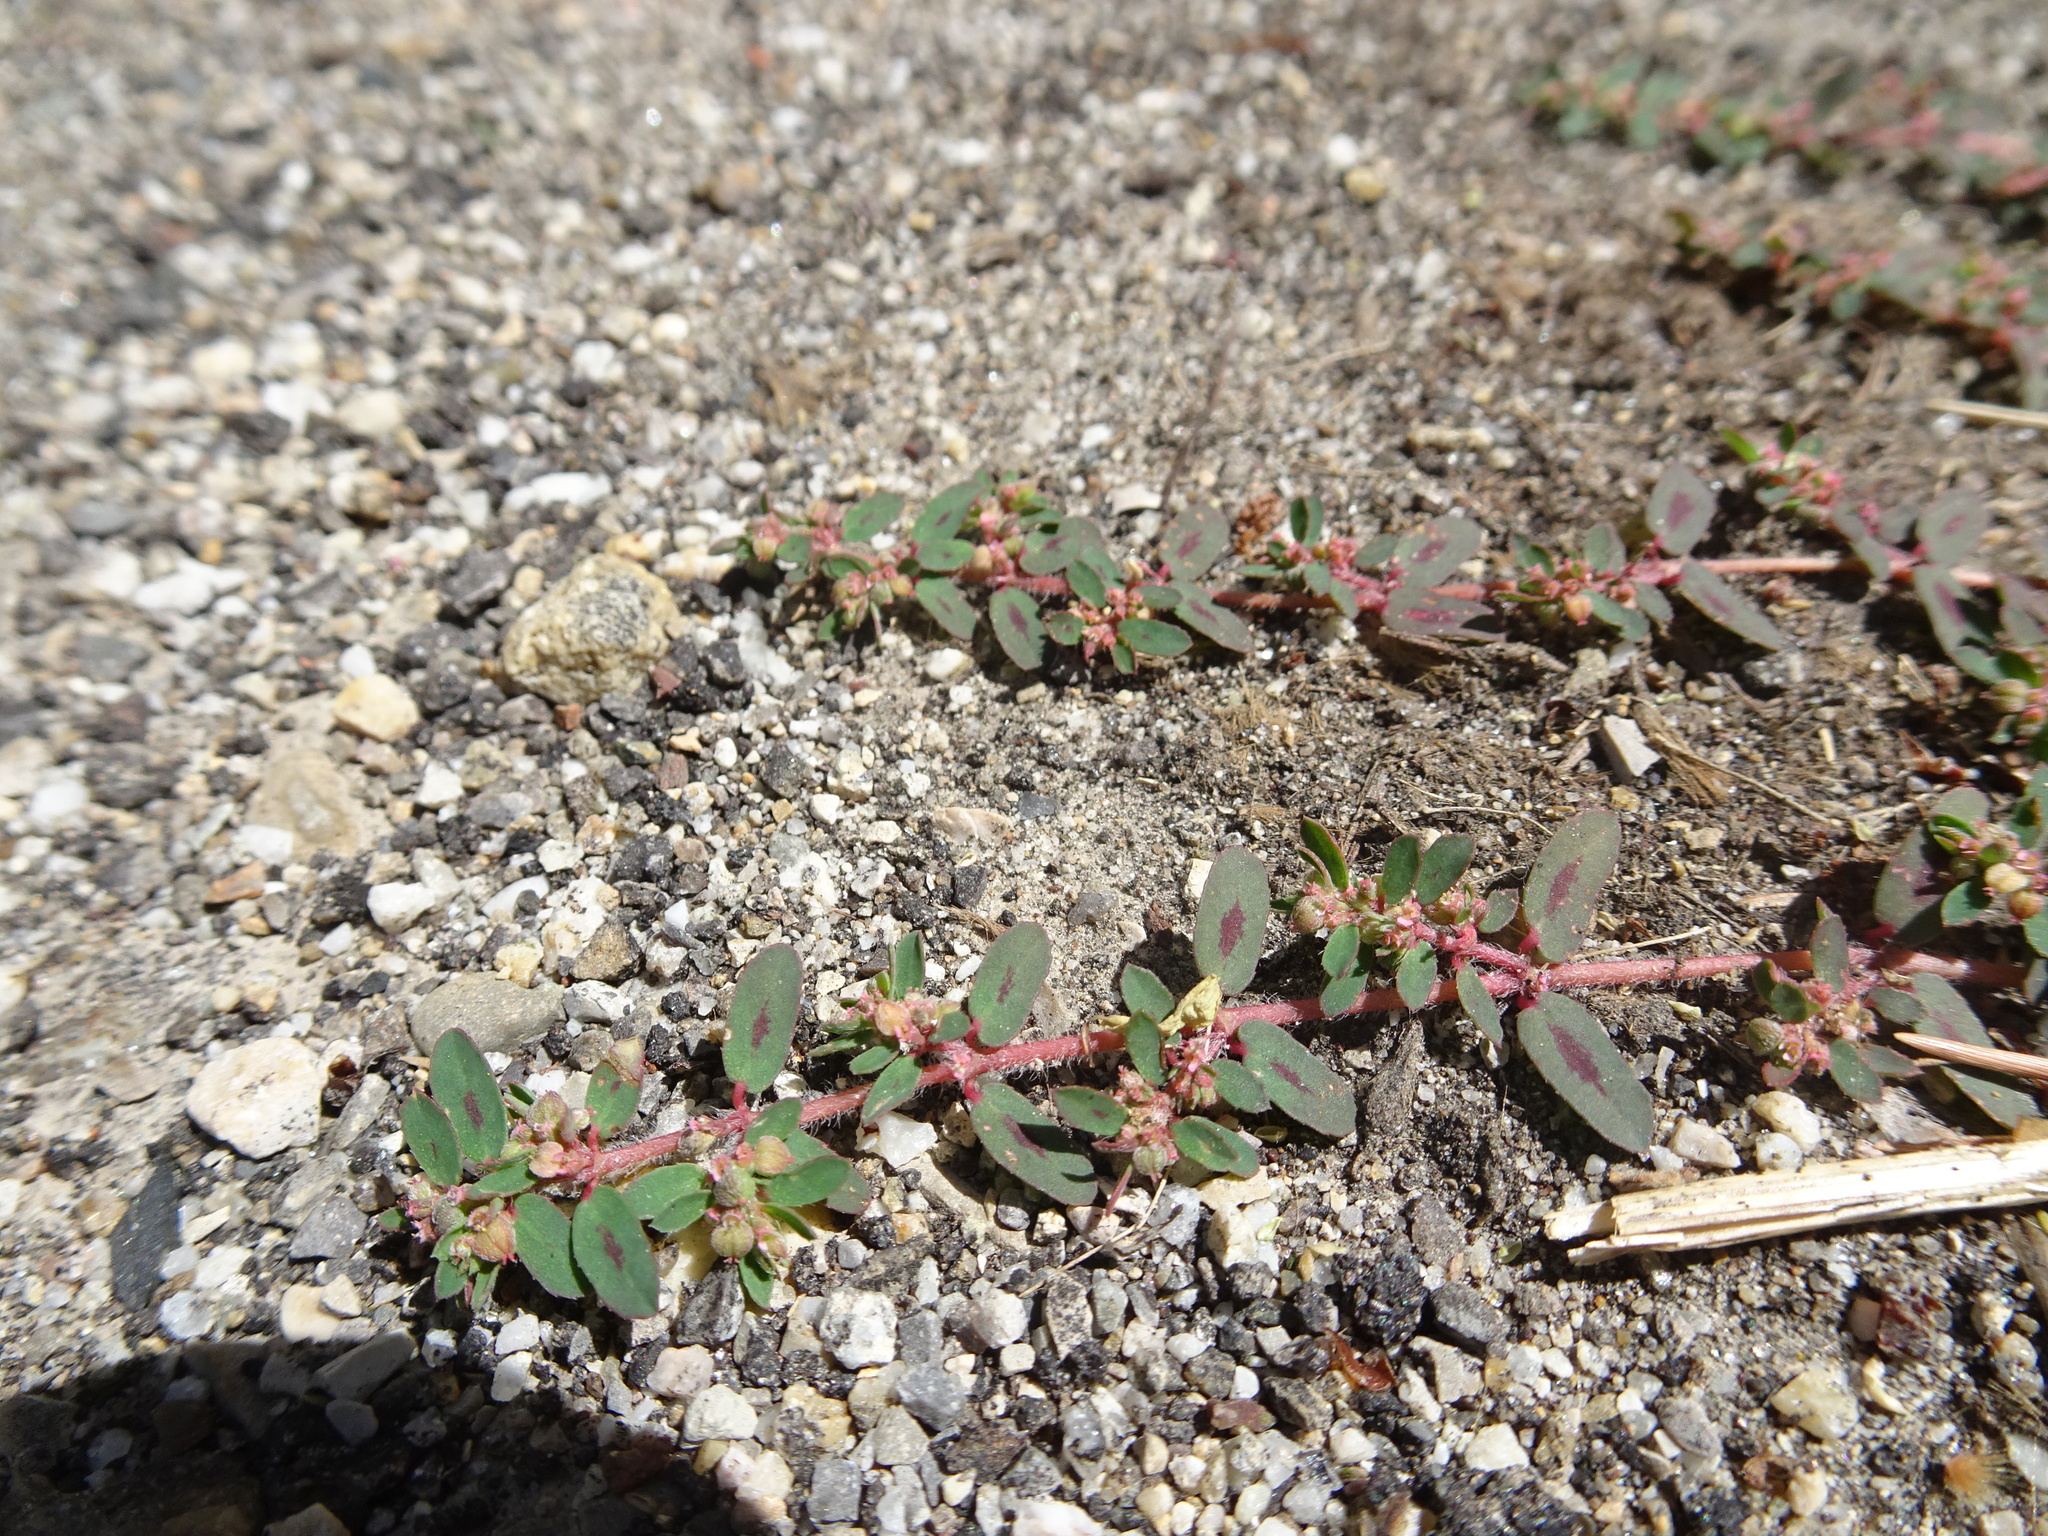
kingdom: Plantae
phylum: Tracheophyta
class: Magnoliopsida
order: Malpighiales
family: Euphorbiaceae
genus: Euphorbia
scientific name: Euphorbia maculata
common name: Spotted spurge
